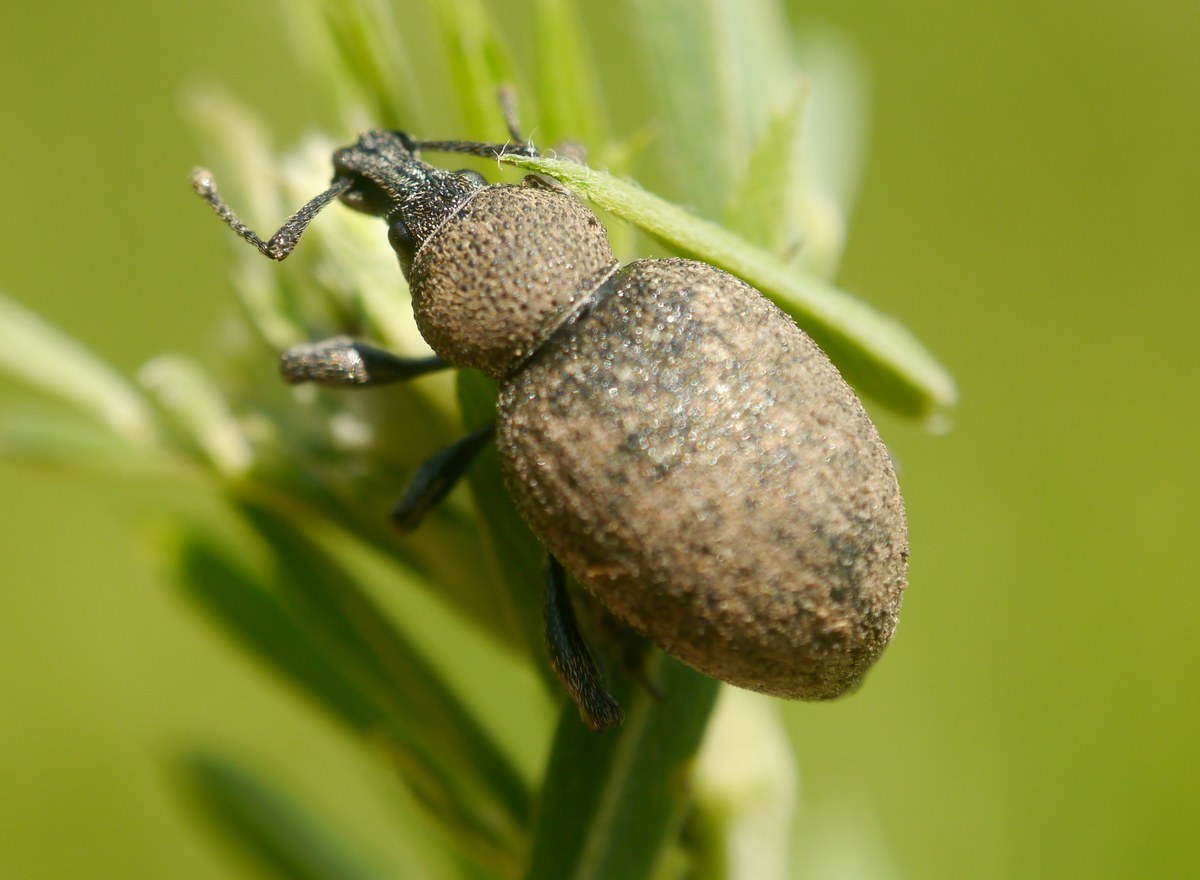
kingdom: Animalia
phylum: Arthropoda
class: Insecta
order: Coleoptera
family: Curculionidae
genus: Otiorhynchus
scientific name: Otiorhynchus ligustici
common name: Weevil
